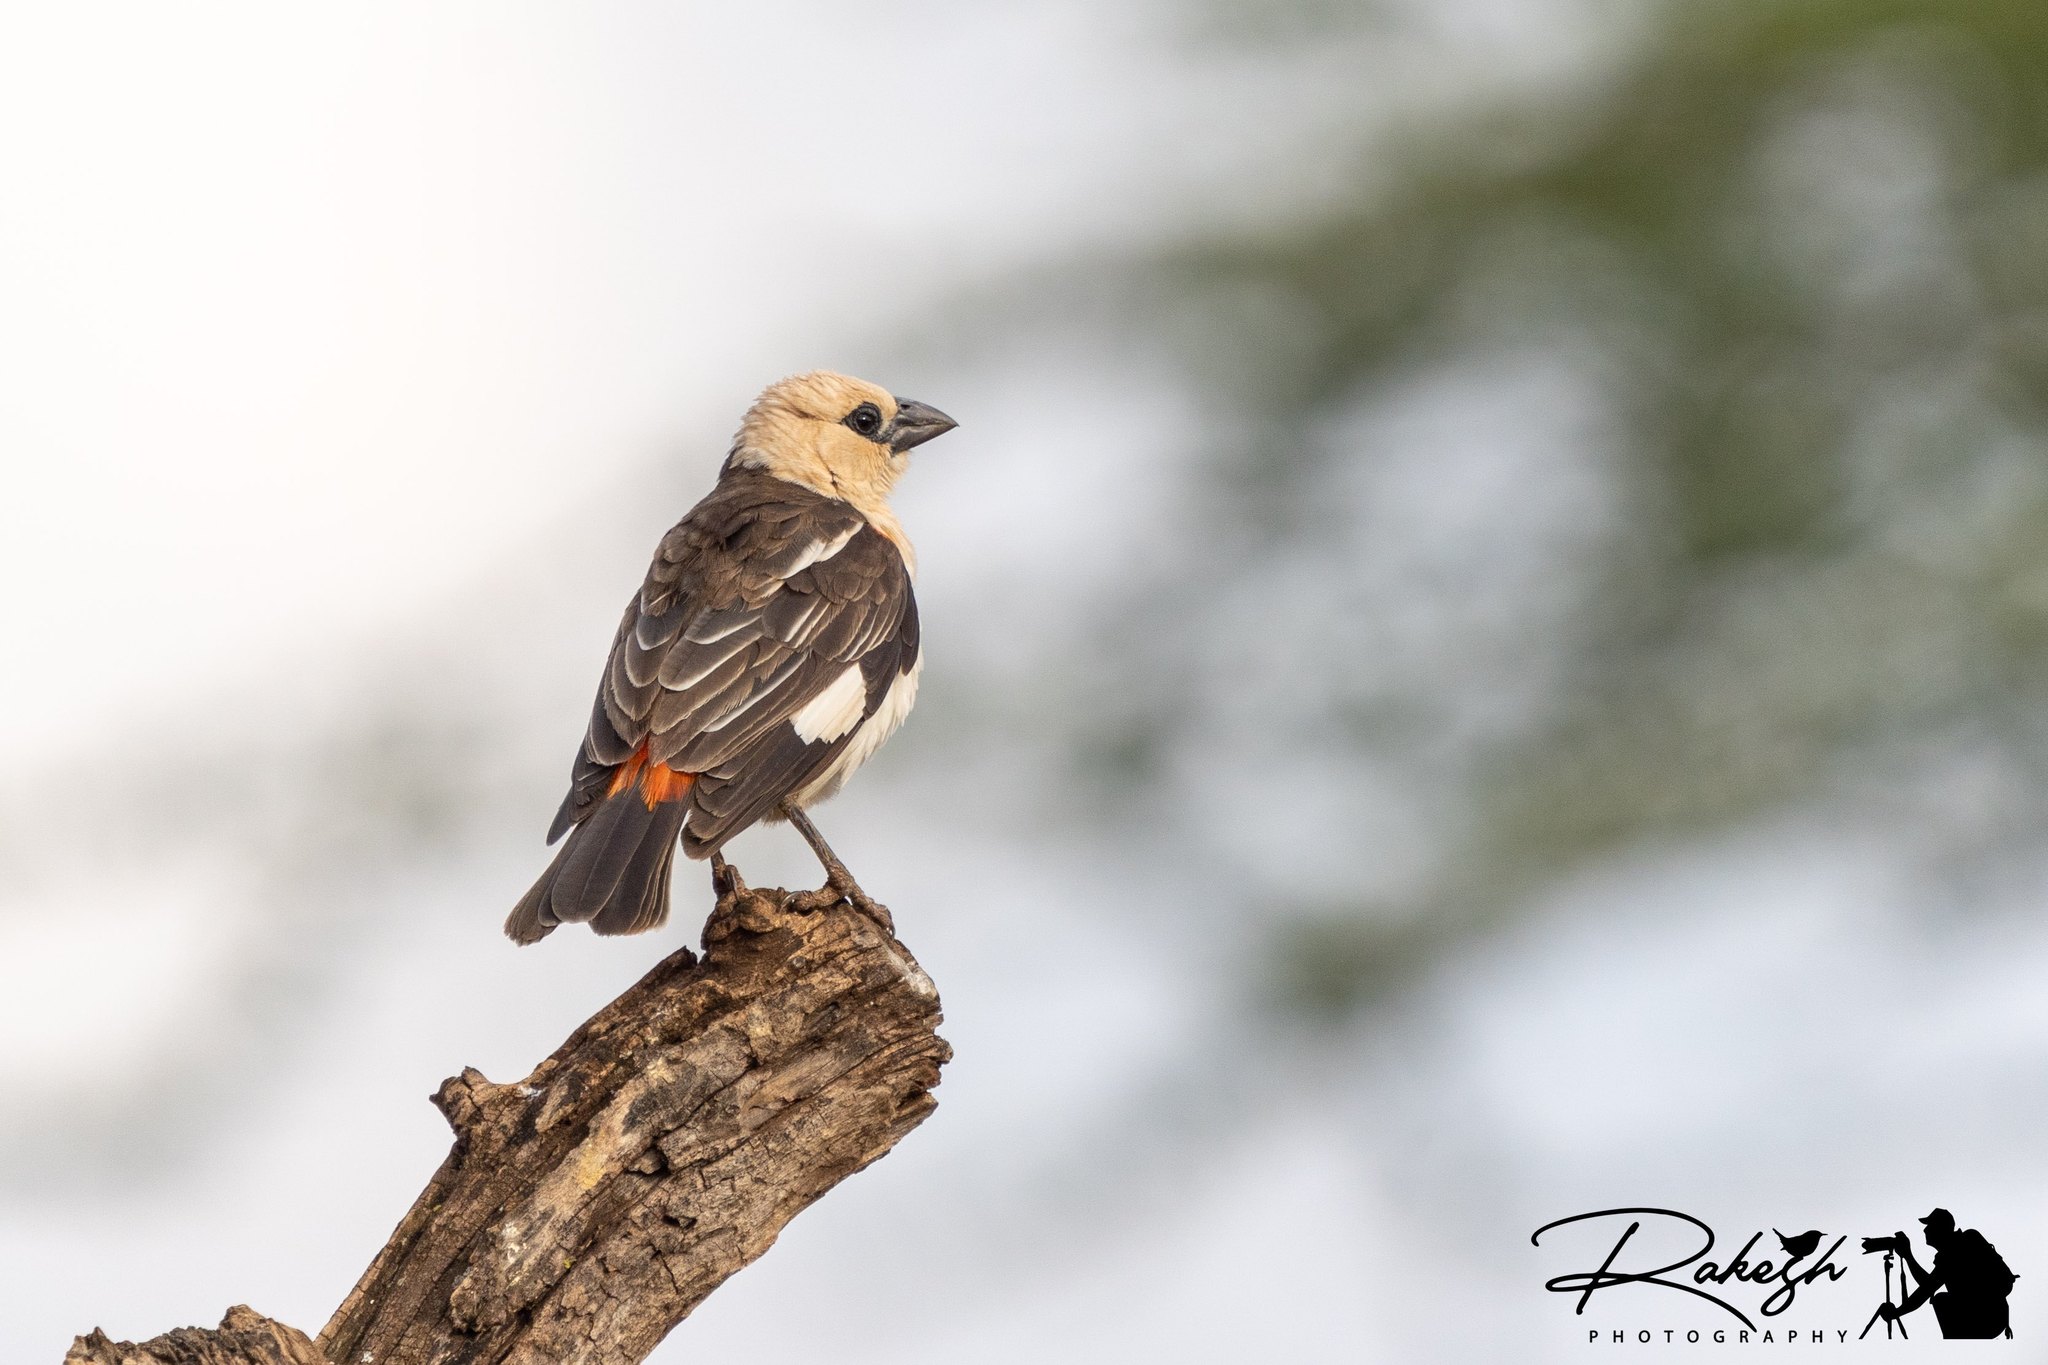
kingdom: Animalia
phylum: Chordata
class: Aves
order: Passeriformes
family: Ploceidae
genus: Dinemellia
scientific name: Dinemellia dinemelli
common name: White-headed buffalo weaver
